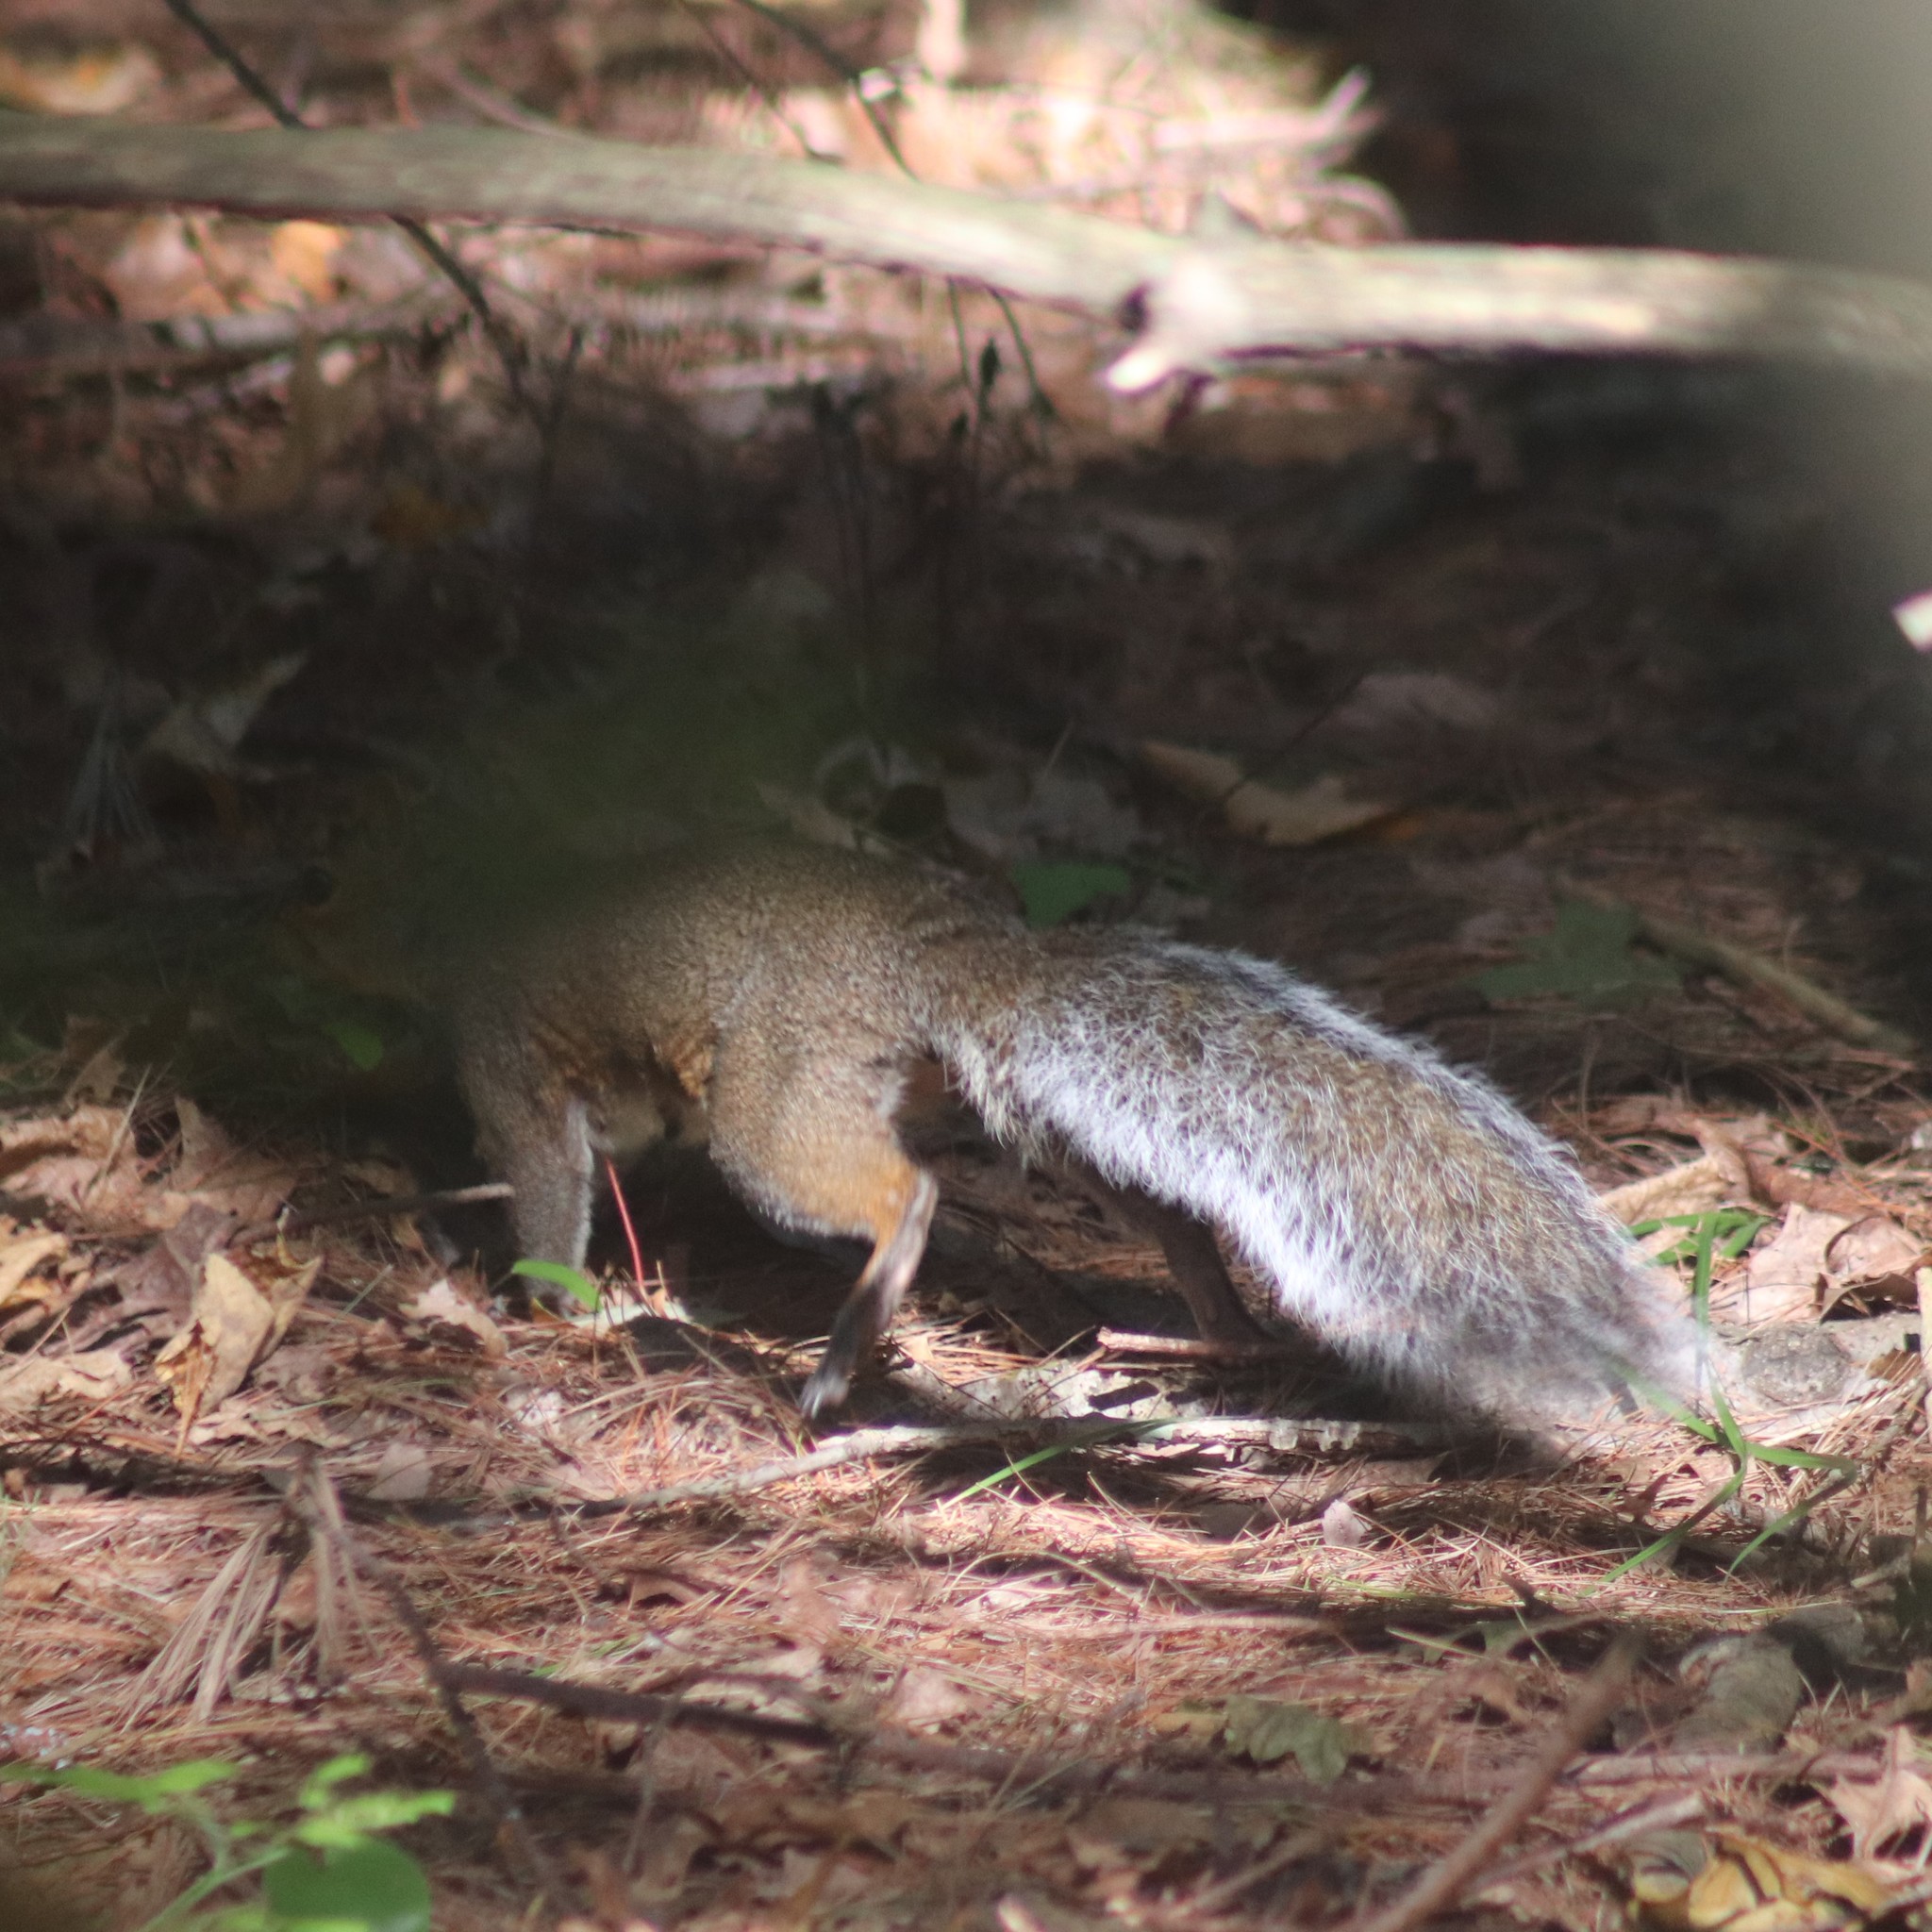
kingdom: Animalia
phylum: Chordata
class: Mammalia
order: Rodentia
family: Sciuridae
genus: Sciurus
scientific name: Sciurus carolinensis
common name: Eastern gray squirrel
